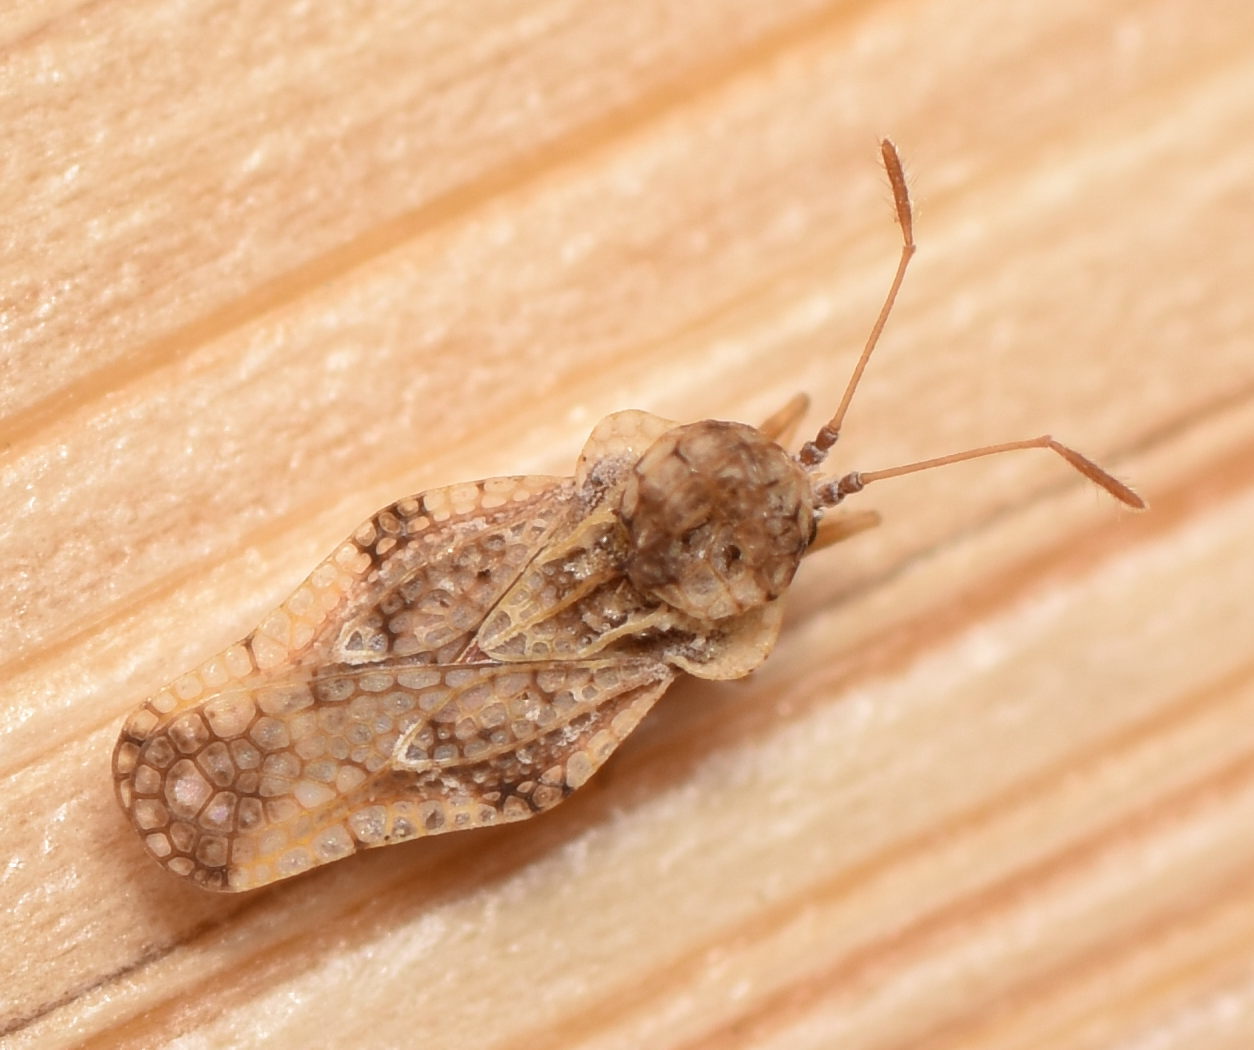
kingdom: Animalia
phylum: Arthropoda
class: Insecta
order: Hemiptera
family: Tingidae
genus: Corythauma
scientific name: Corythauma ayyari
